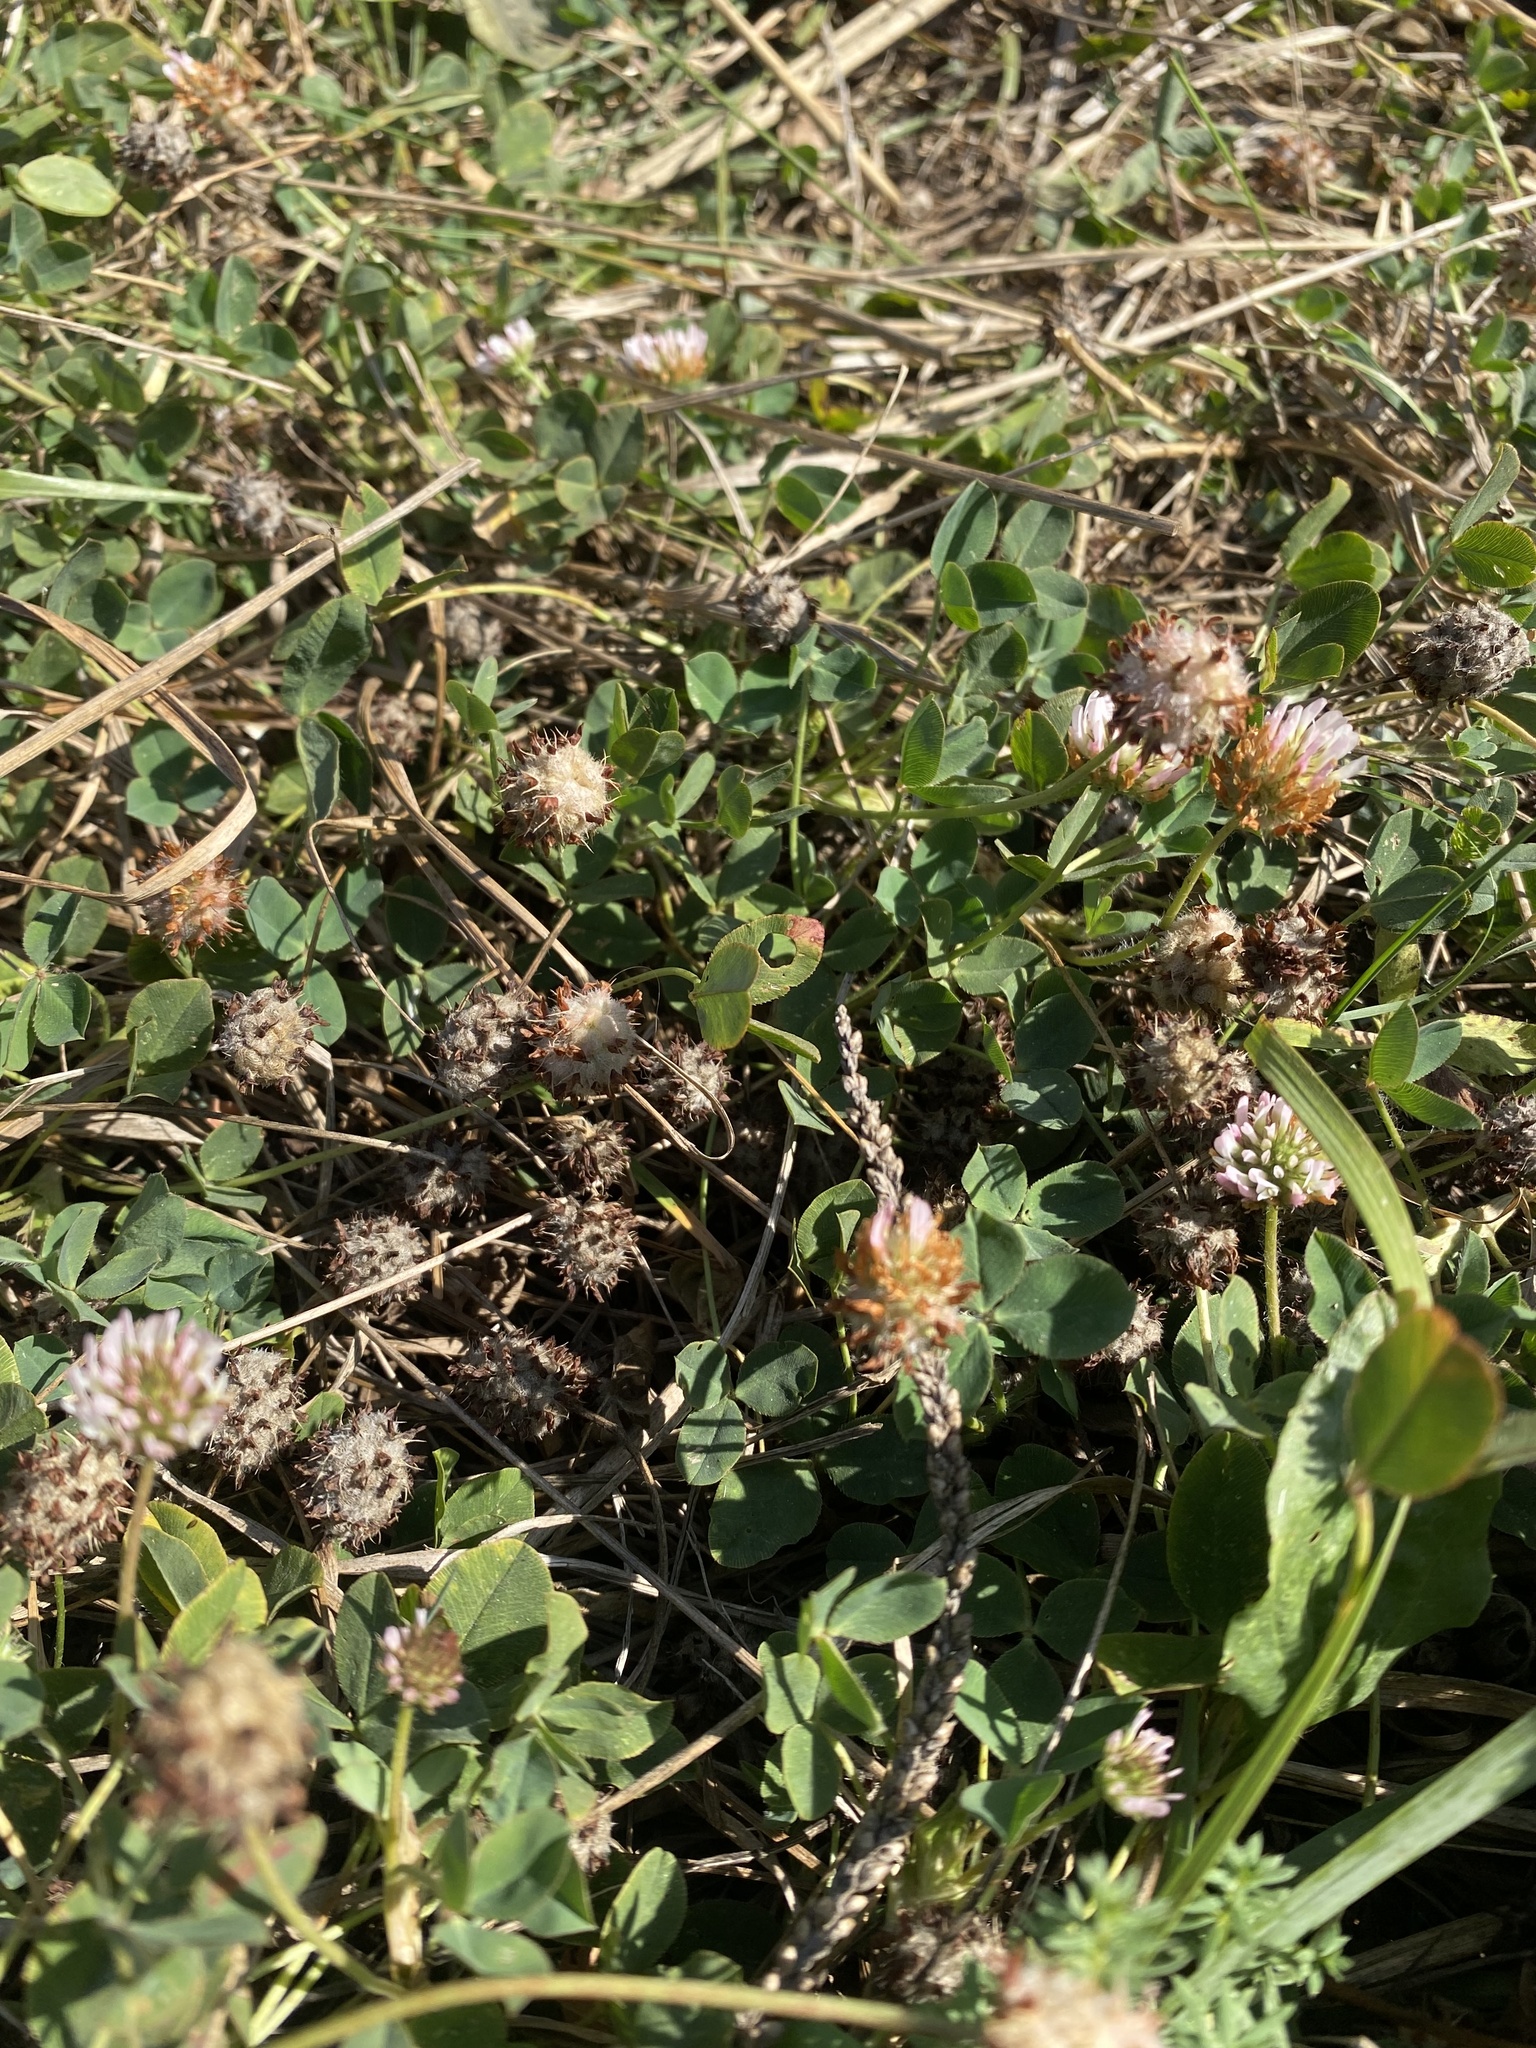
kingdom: Plantae
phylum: Tracheophyta
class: Magnoliopsida
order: Fabales
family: Fabaceae
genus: Trifolium
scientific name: Trifolium fragiferum
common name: Strawberry clover
